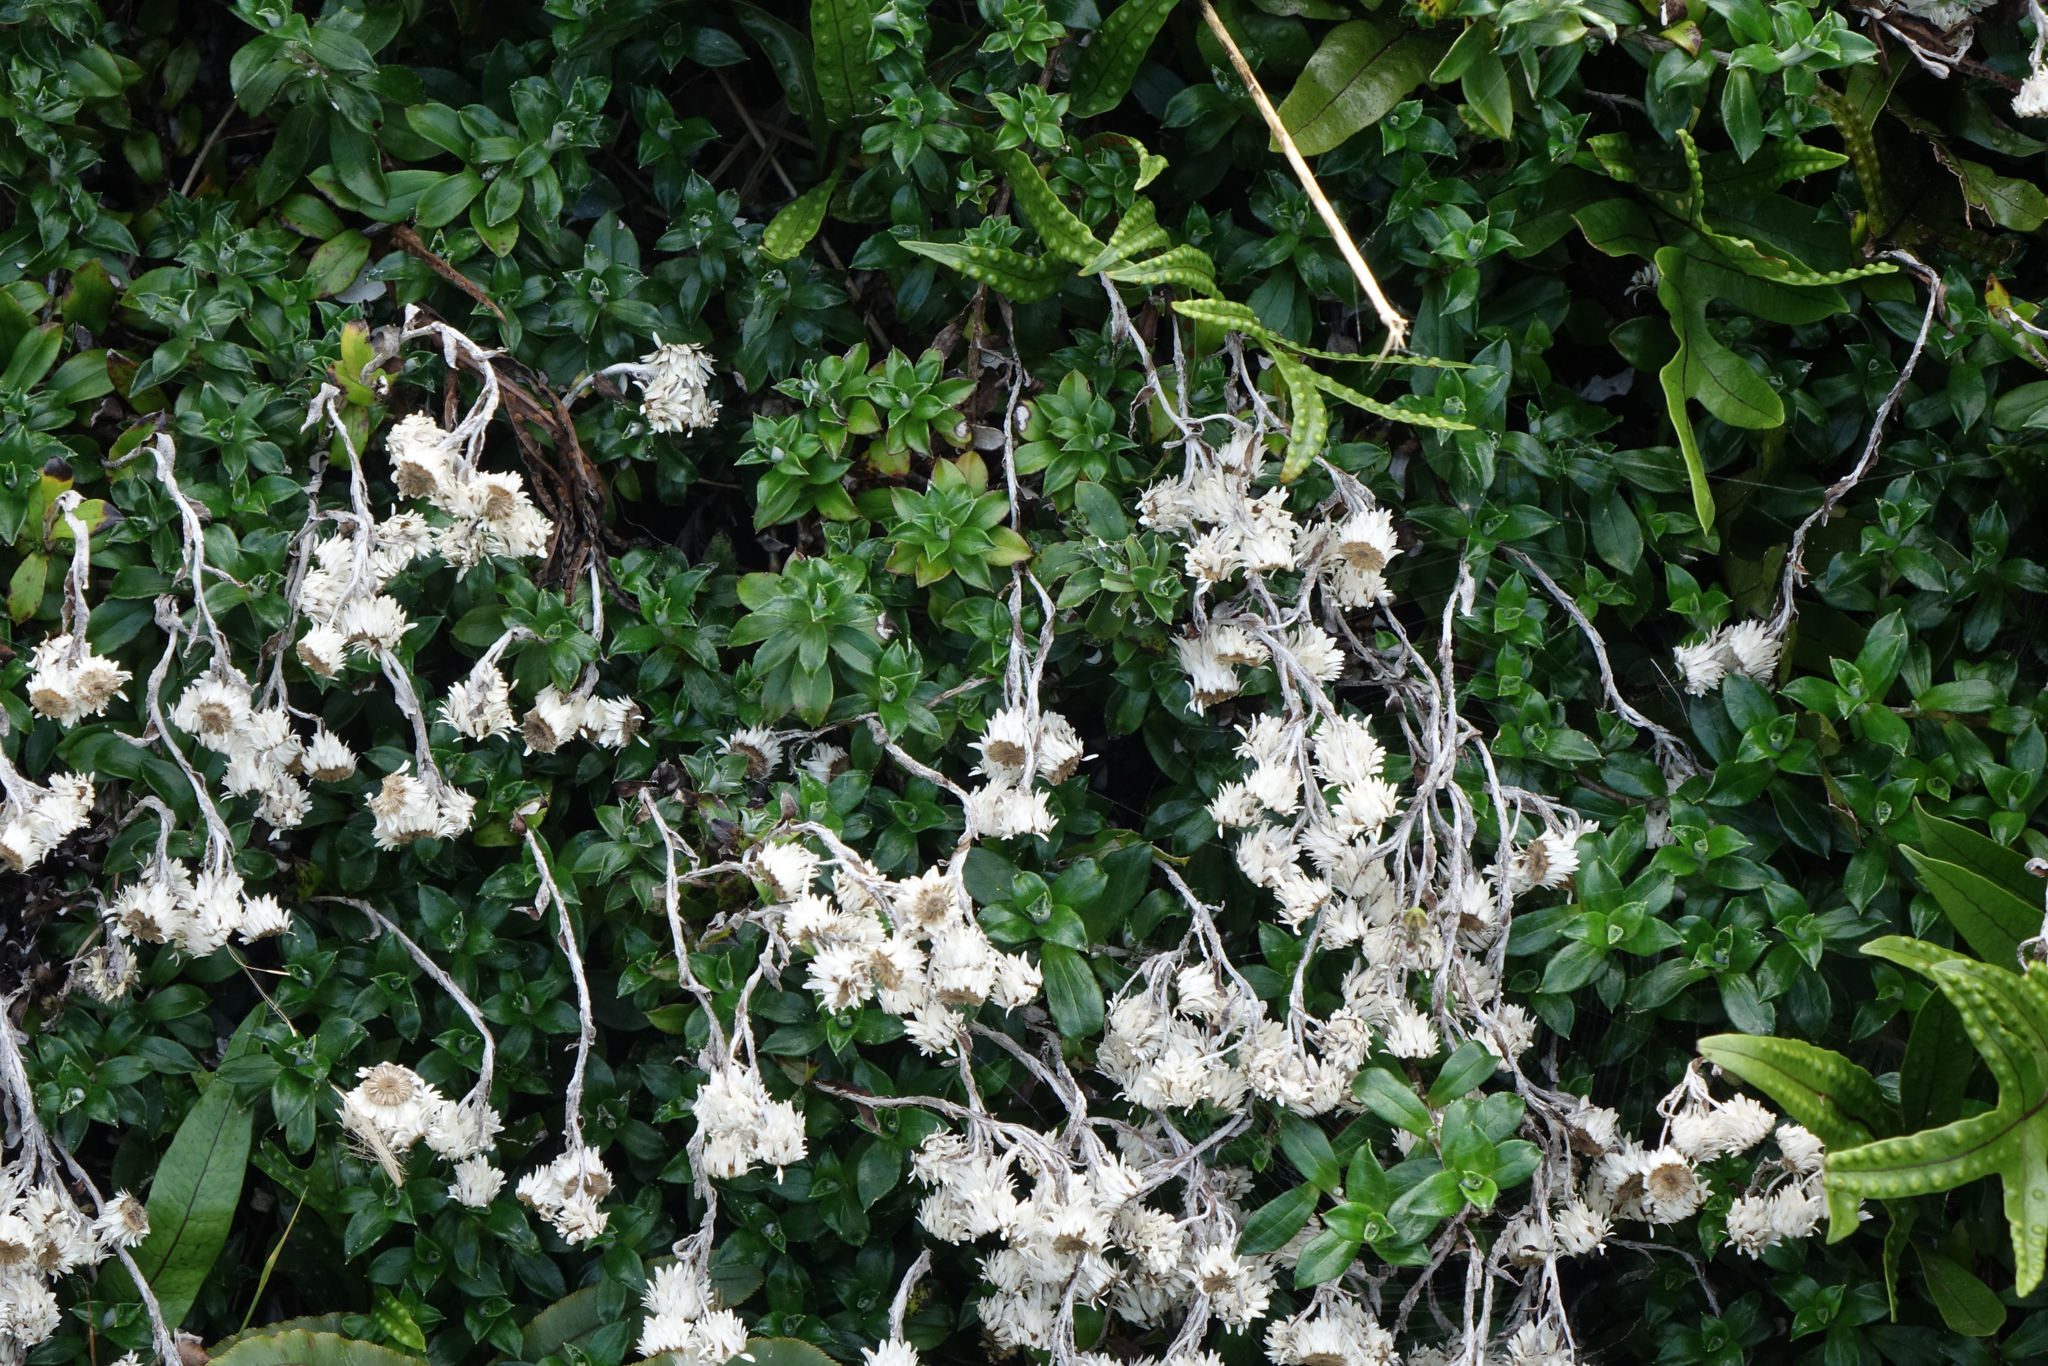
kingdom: Plantae
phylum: Tracheophyta
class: Magnoliopsida
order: Asterales
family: Asteraceae
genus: Anaphalioides
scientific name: Anaphalioides hookeri
